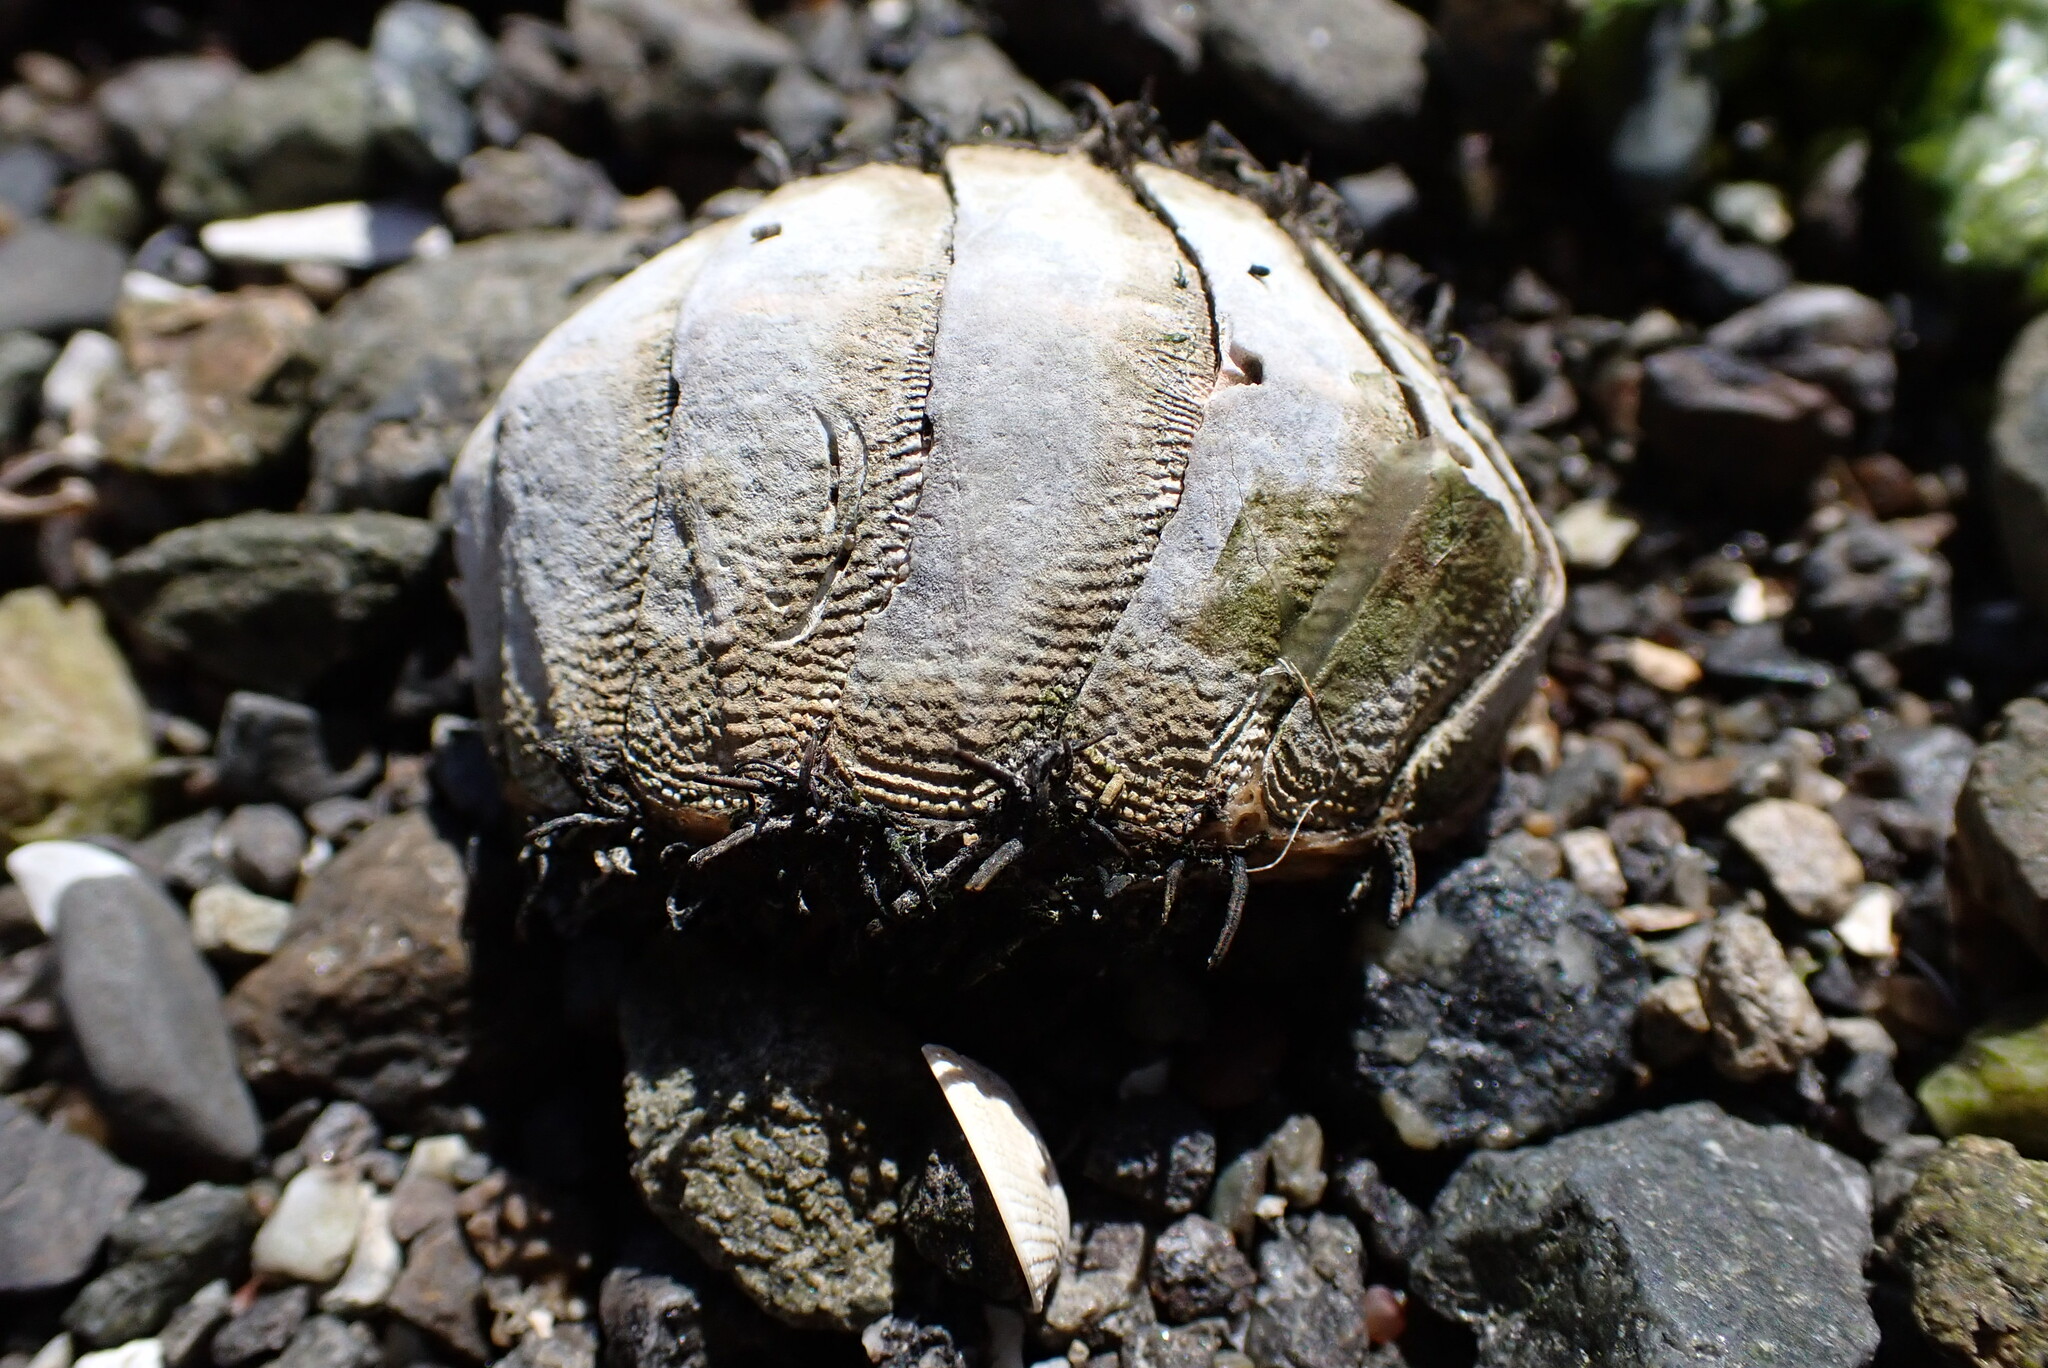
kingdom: Animalia
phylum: Mollusca
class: Polyplacophora
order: Chitonida
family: Mopaliidae
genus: Mopalia
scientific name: Mopalia muscosa
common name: Mossy chiton
